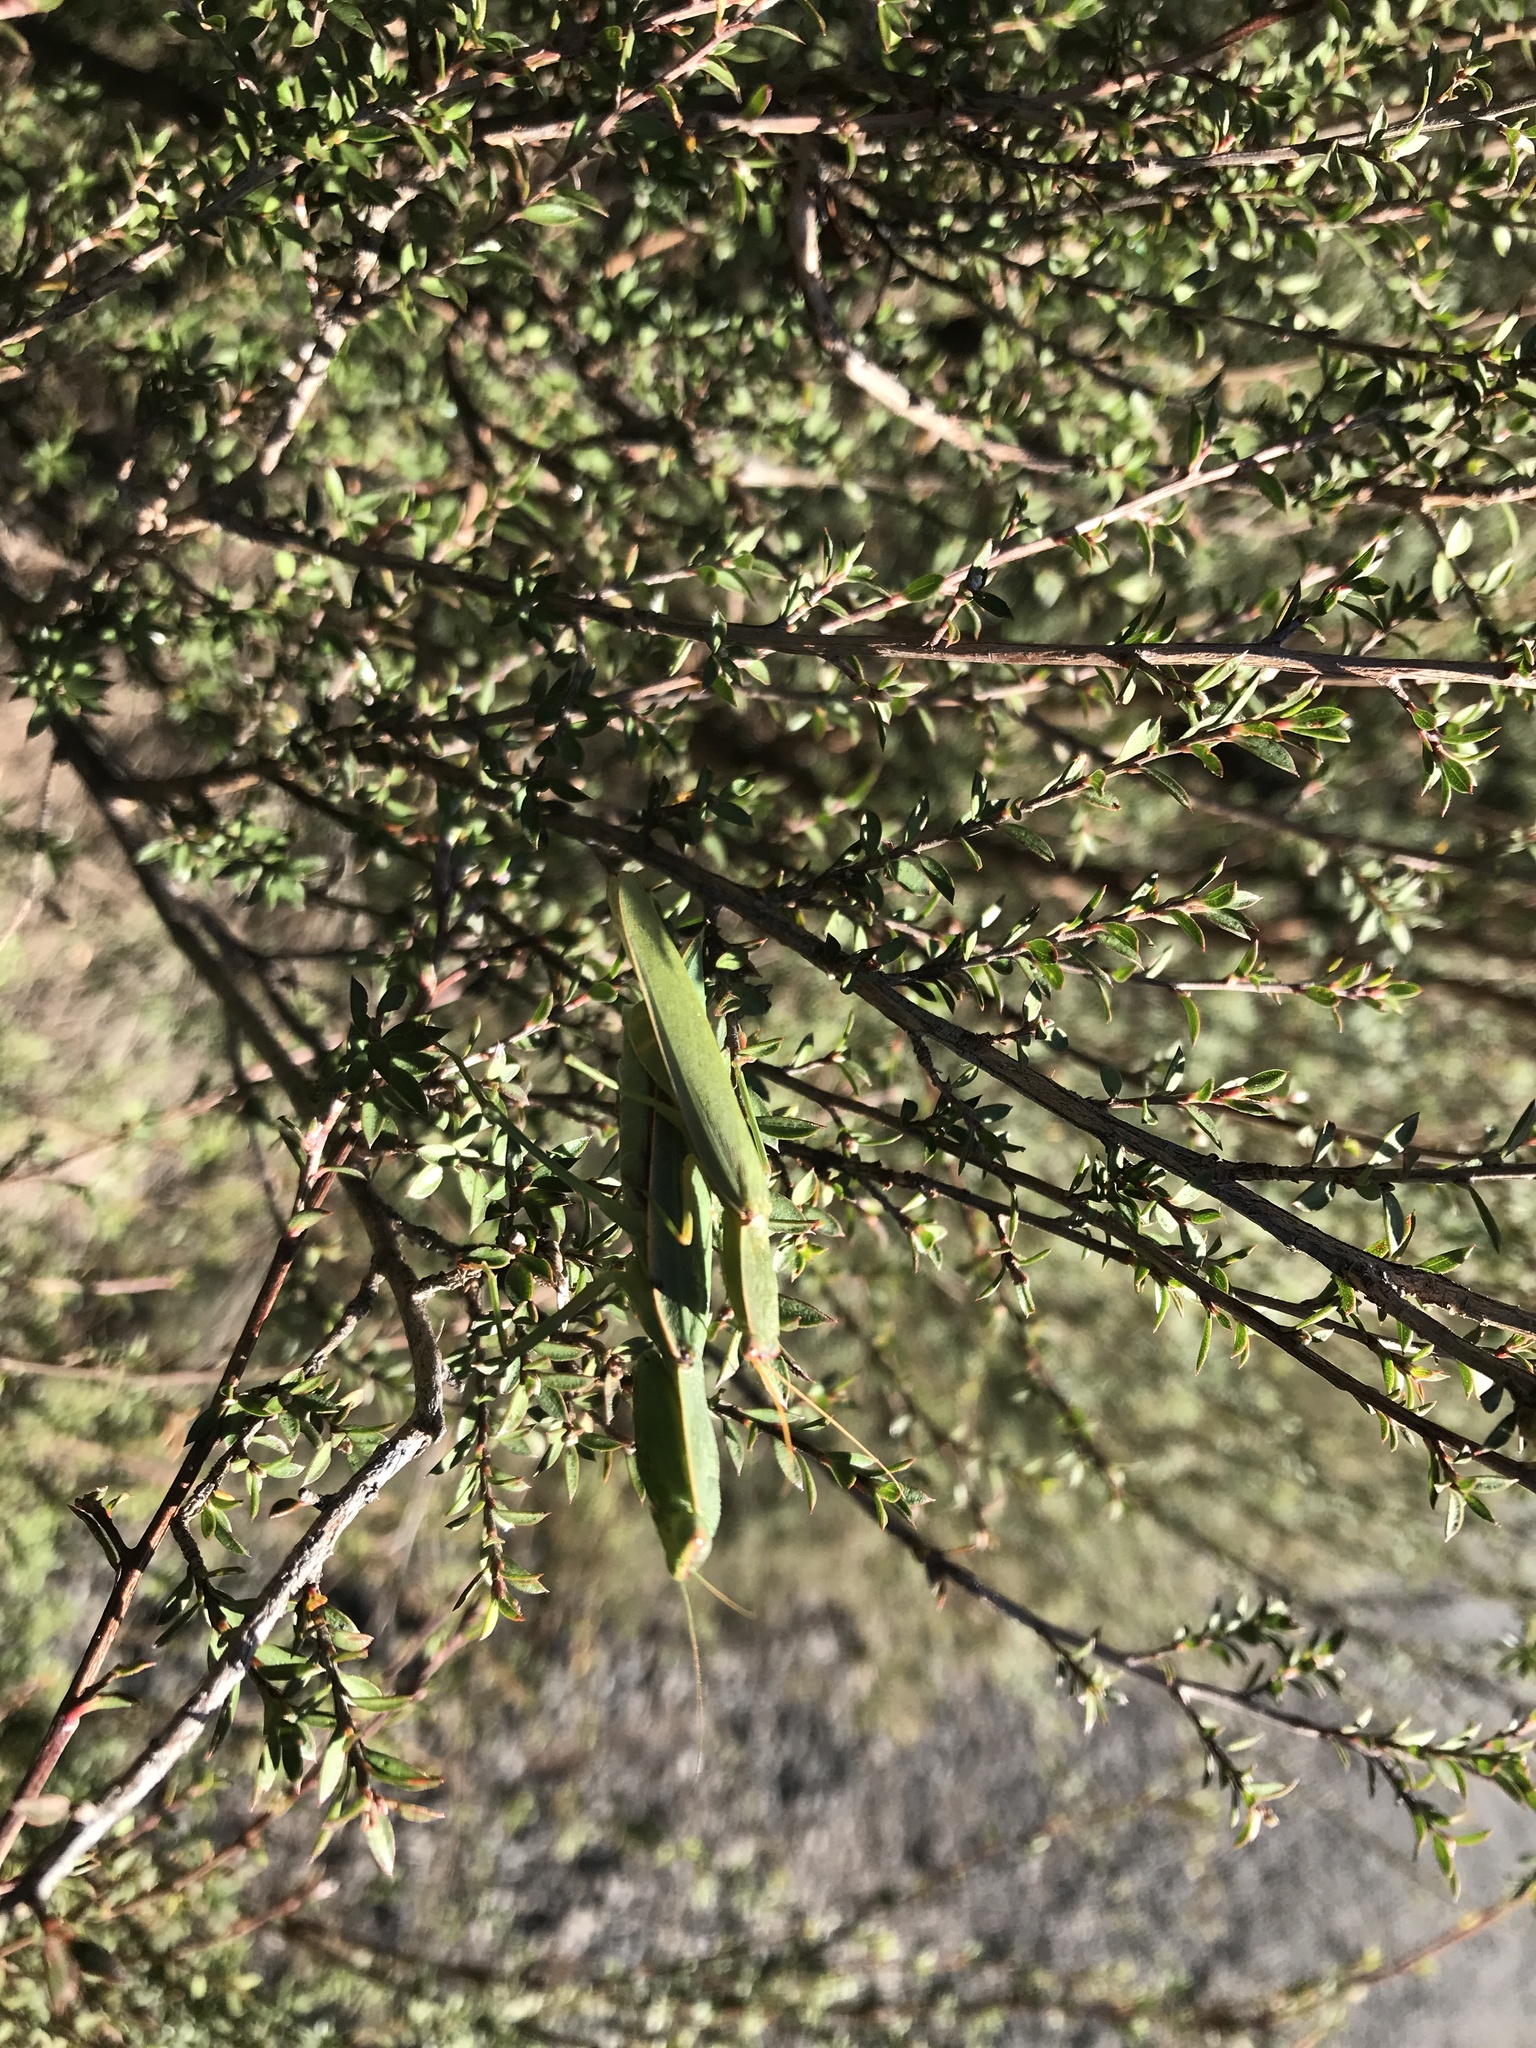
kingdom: Animalia
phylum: Arthropoda
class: Insecta
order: Mantodea
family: Mantidae
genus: Orthodera
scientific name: Orthodera novaezealandiae
